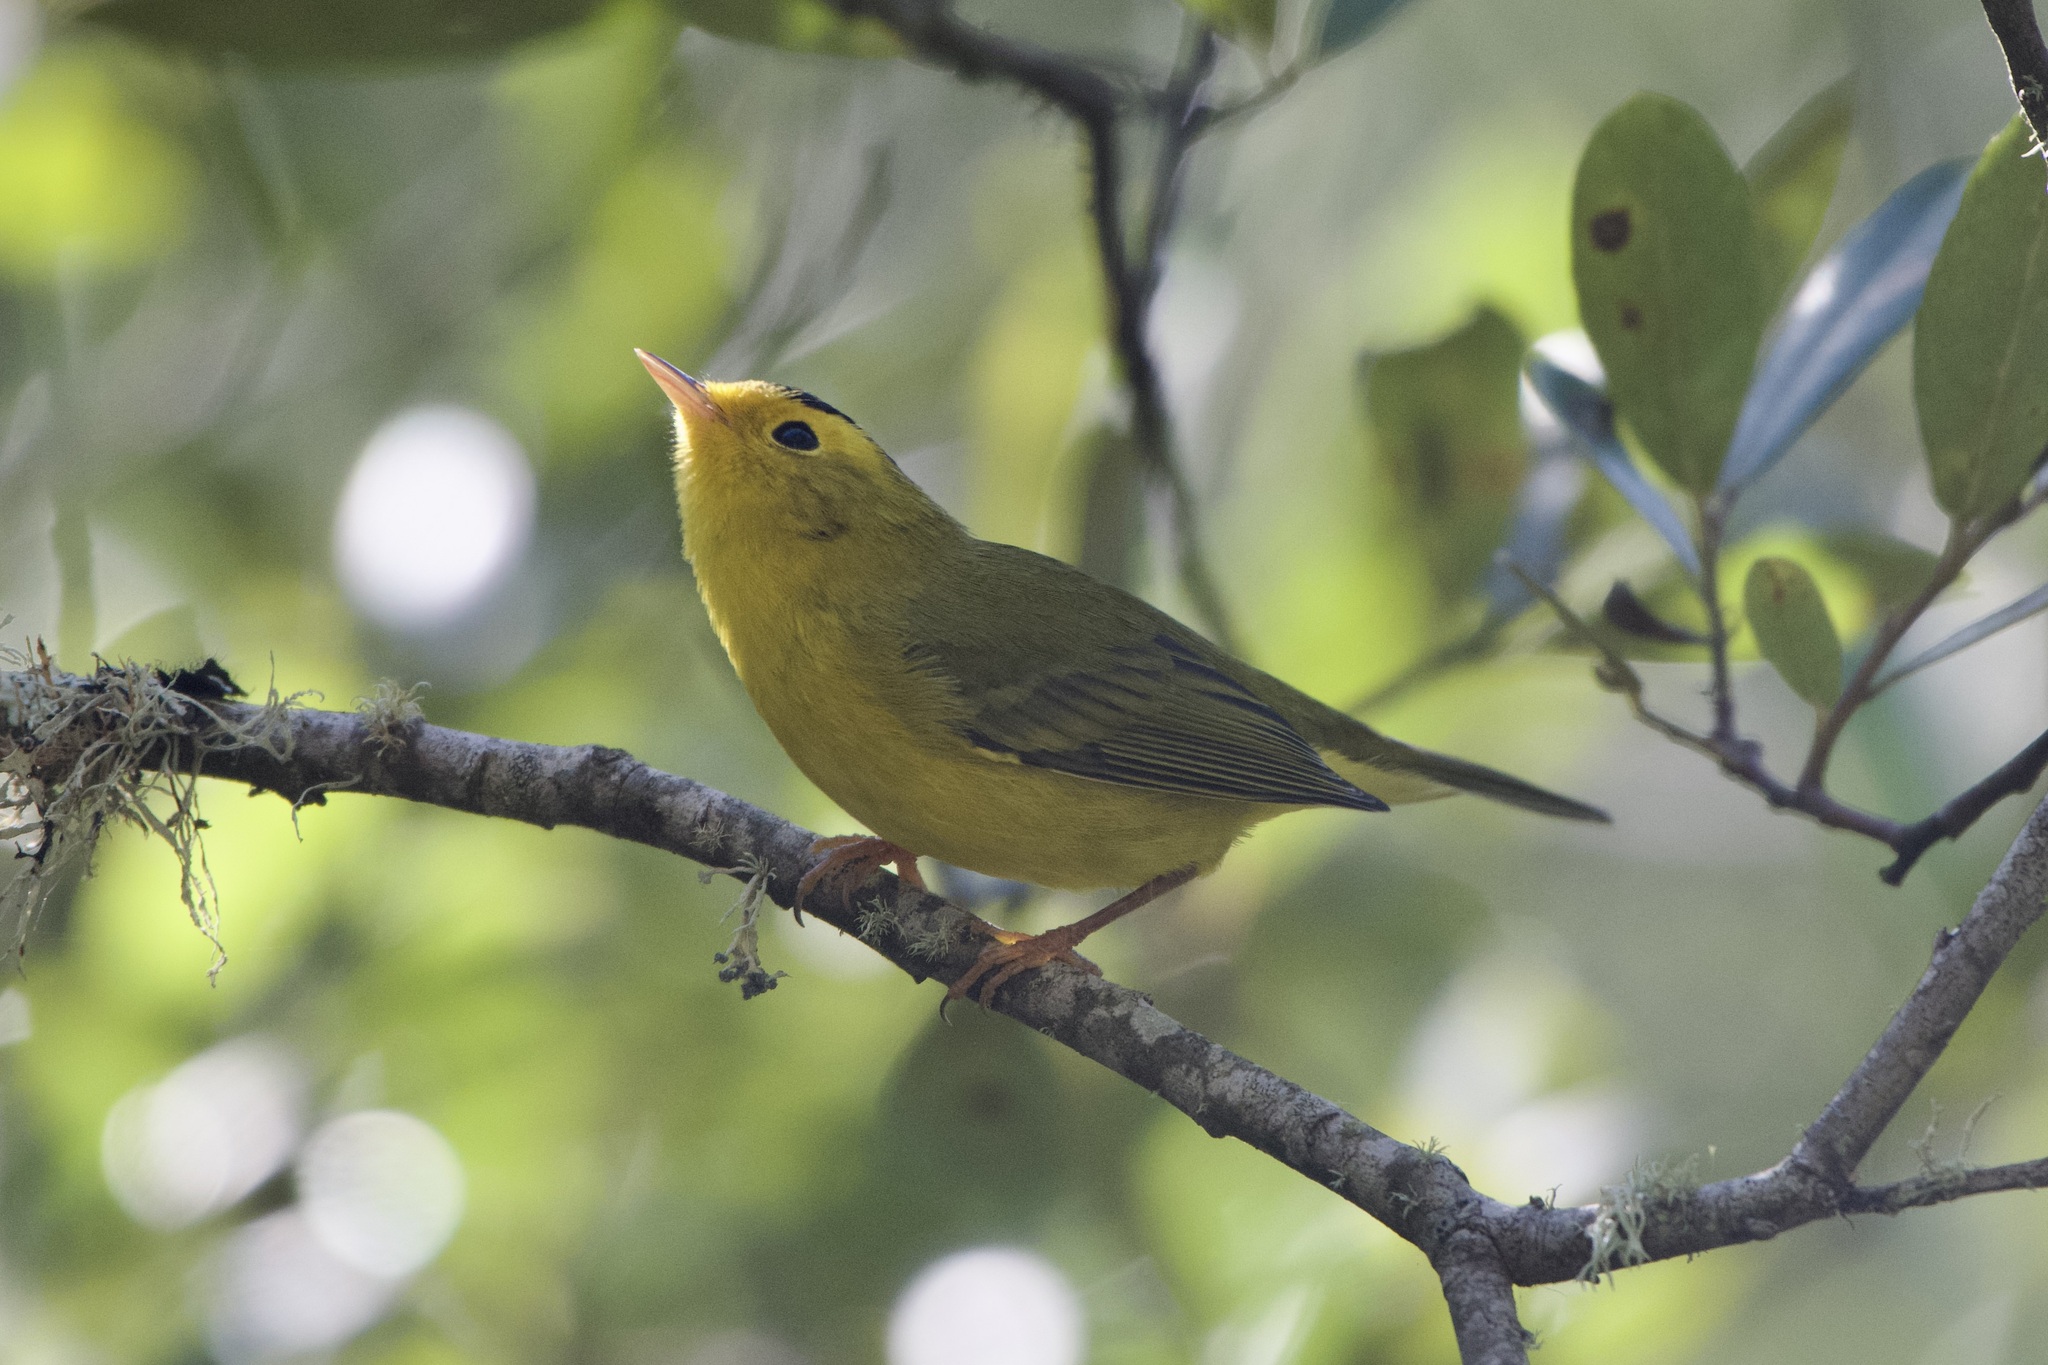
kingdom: Animalia
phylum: Chordata
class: Aves
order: Passeriformes
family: Parulidae
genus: Cardellina
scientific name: Cardellina pusilla
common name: Wilson's warbler
